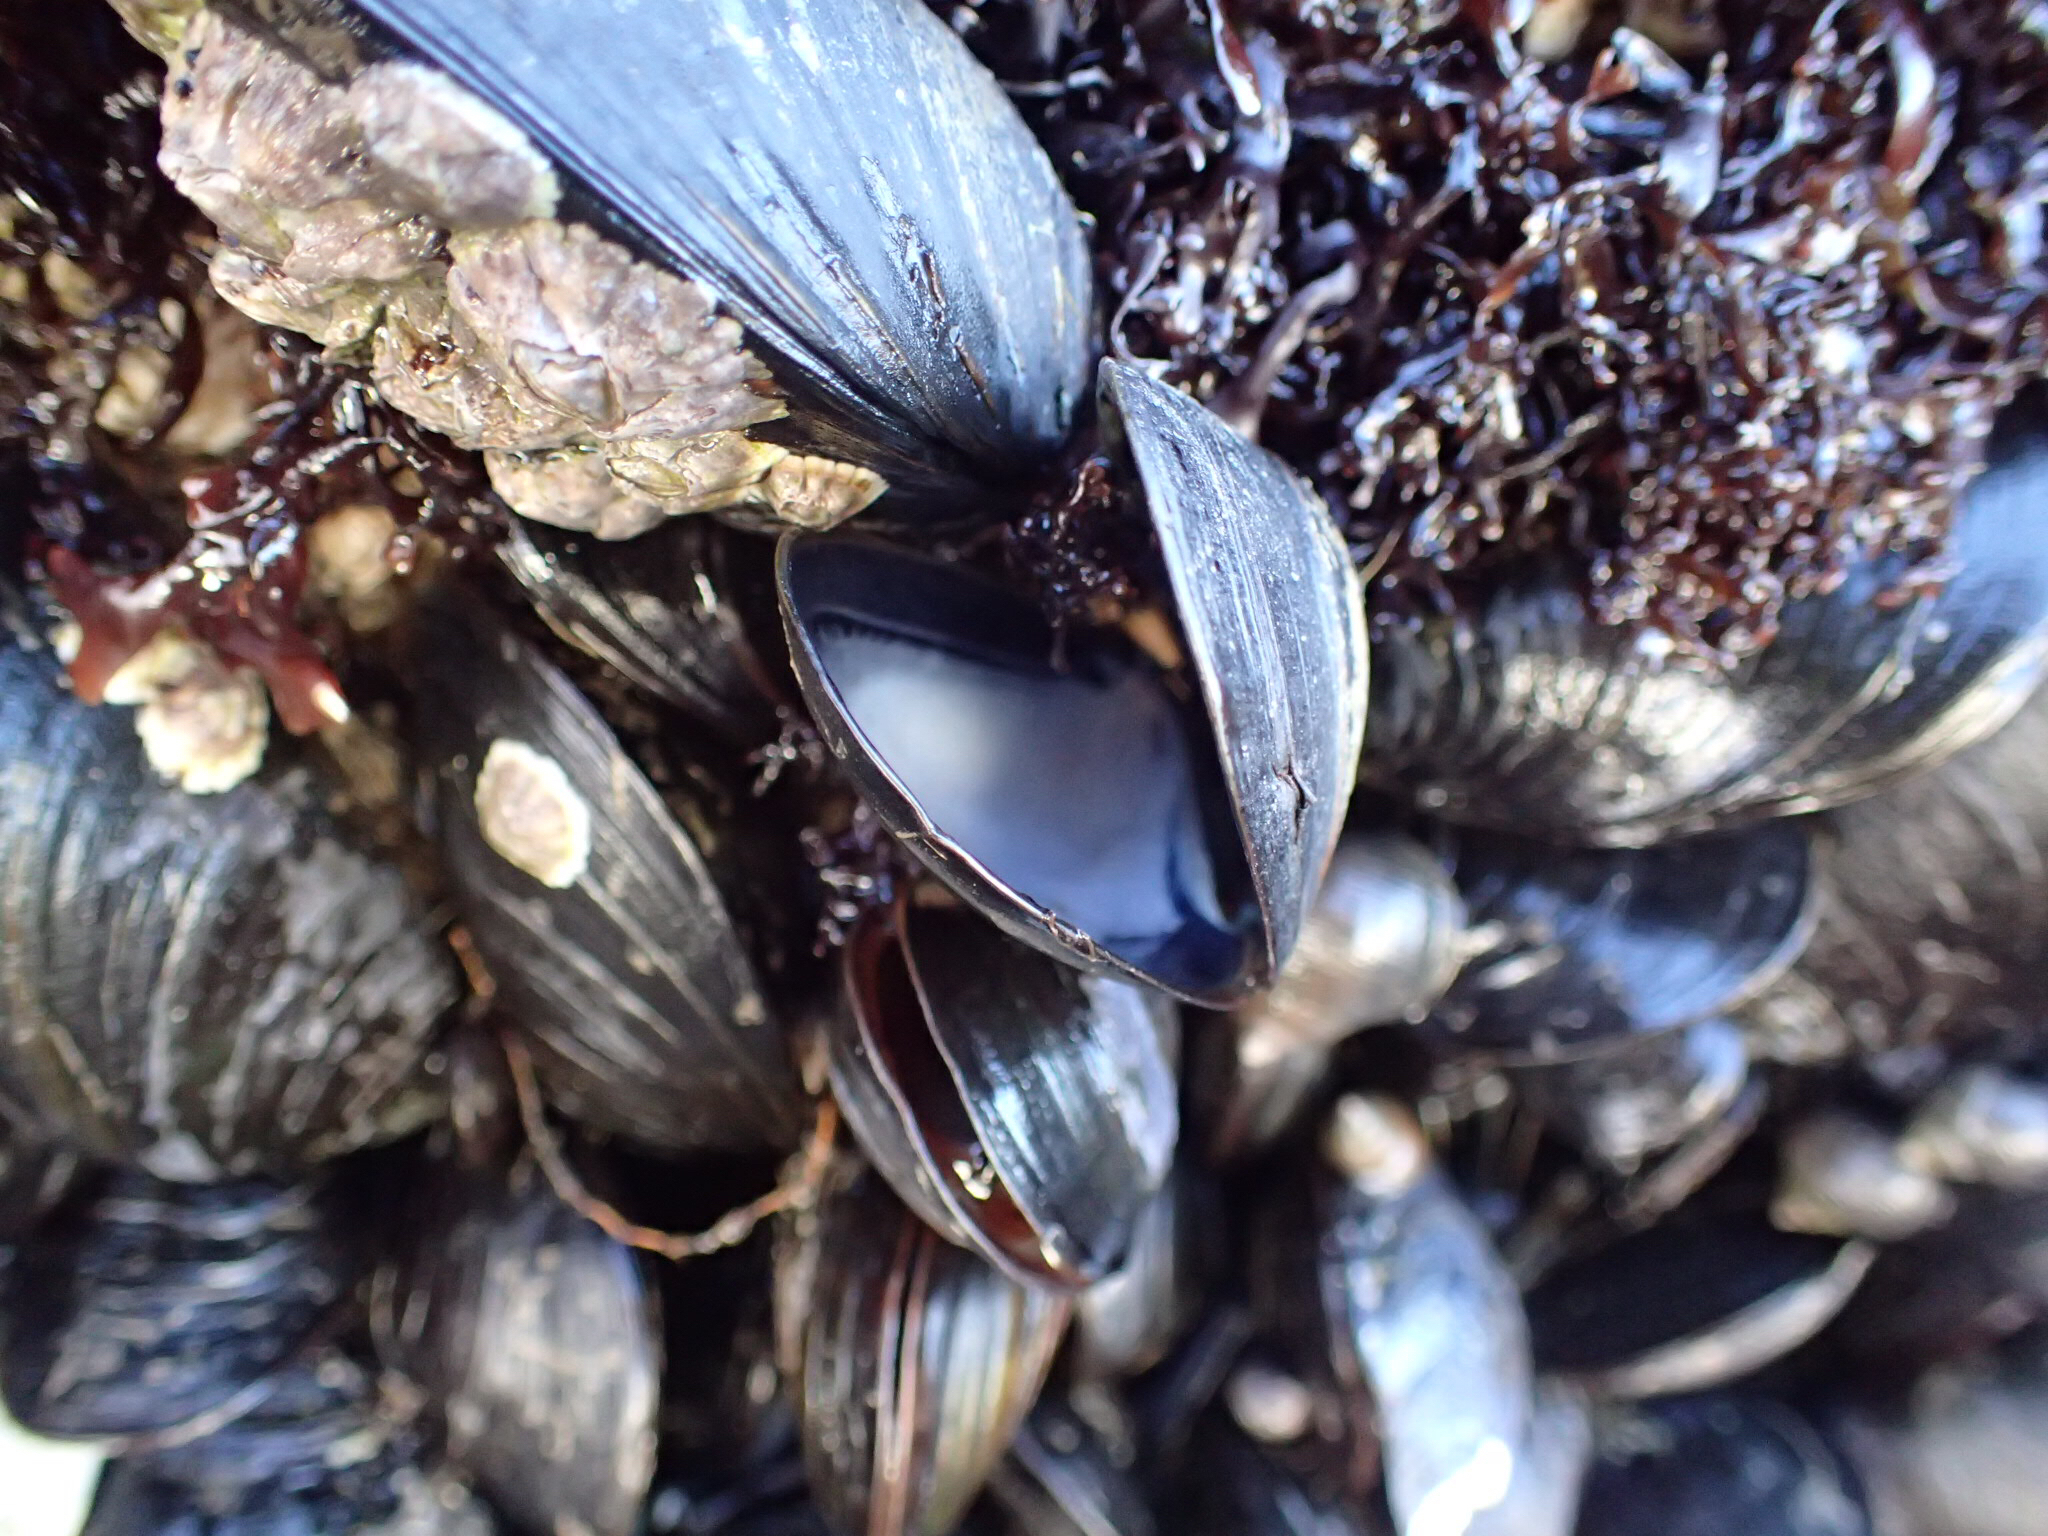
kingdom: Animalia
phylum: Mollusca
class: Bivalvia
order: Mytilida
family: Mytilidae
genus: Mytilus
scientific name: Mytilus edulis
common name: Blue mussel
